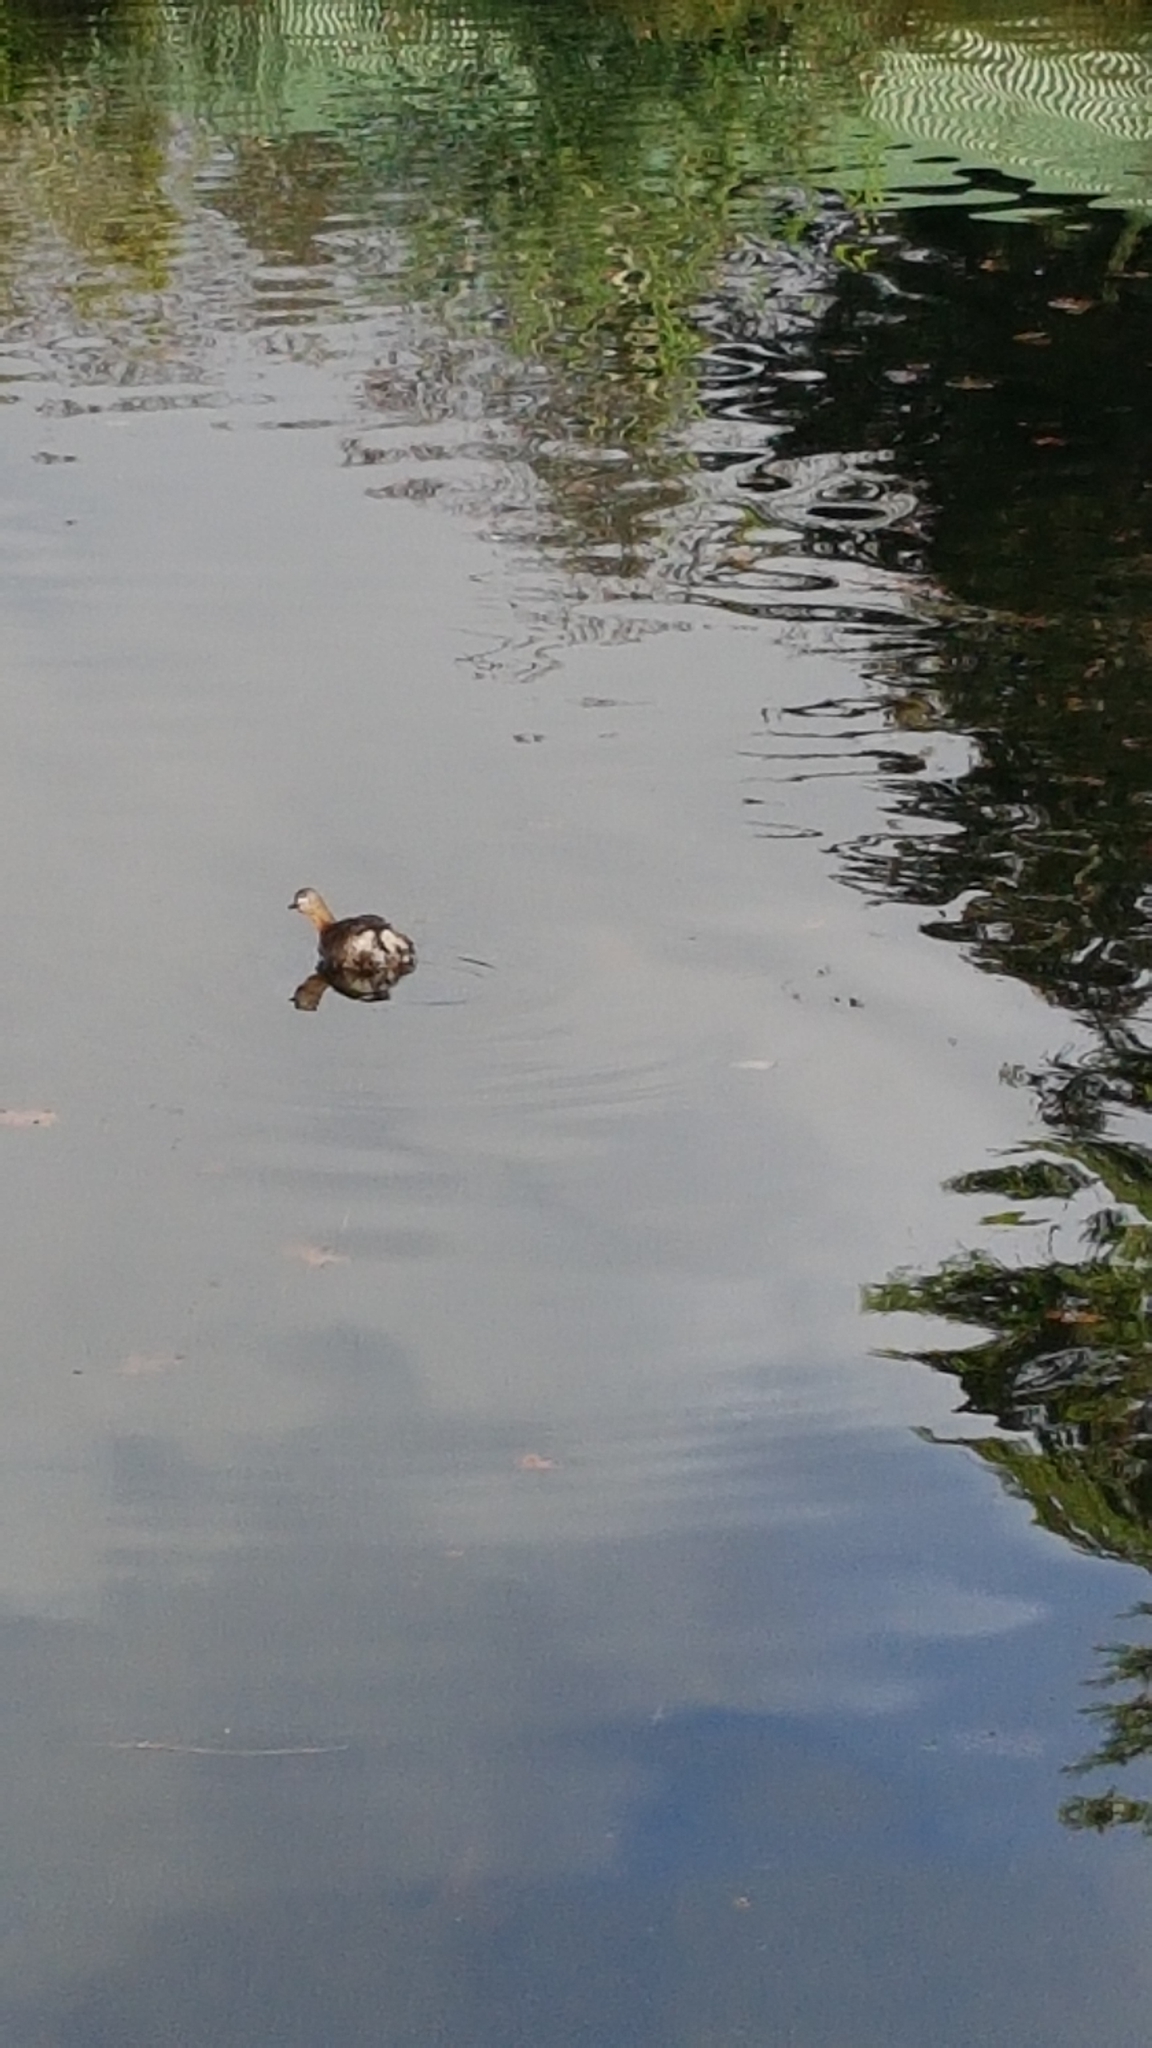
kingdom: Animalia
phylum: Chordata
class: Aves
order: Podicipediformes
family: Podicipedidae
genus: Poliocephalus
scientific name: Poliocephalus rufopectus
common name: New zealand grebe
